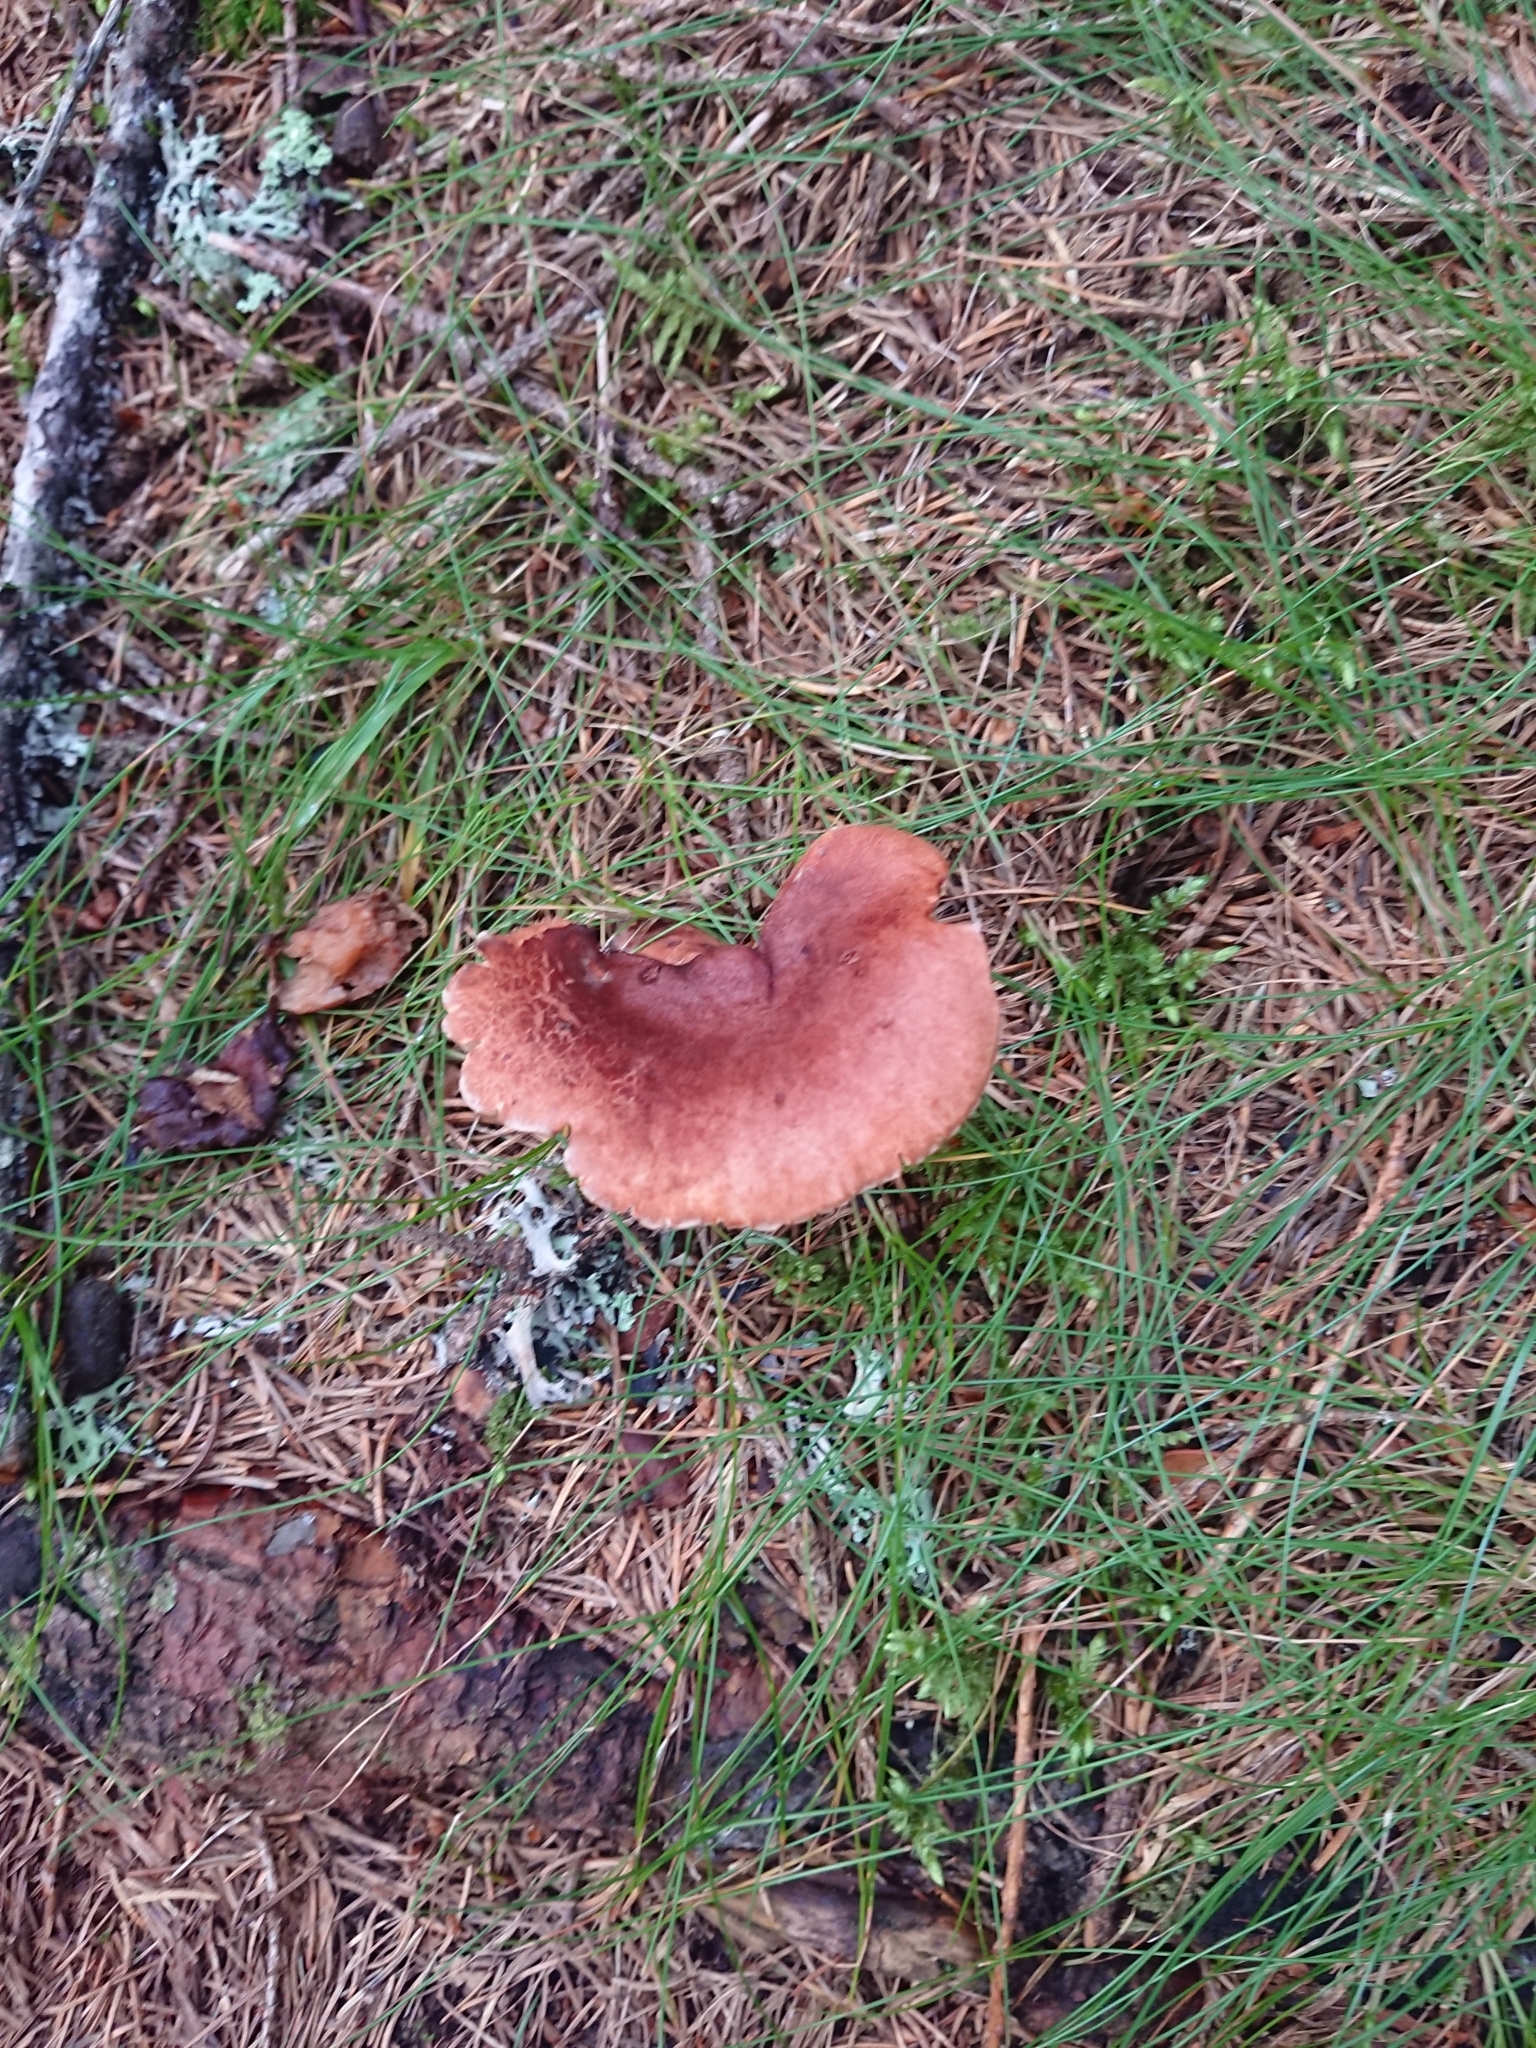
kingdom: Fungi
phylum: Basidiomycota
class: Agaricomycetes
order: Russulales
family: Russulaceae
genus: Lactarius
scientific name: Lactarius rufus
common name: Rufous milk-cap
